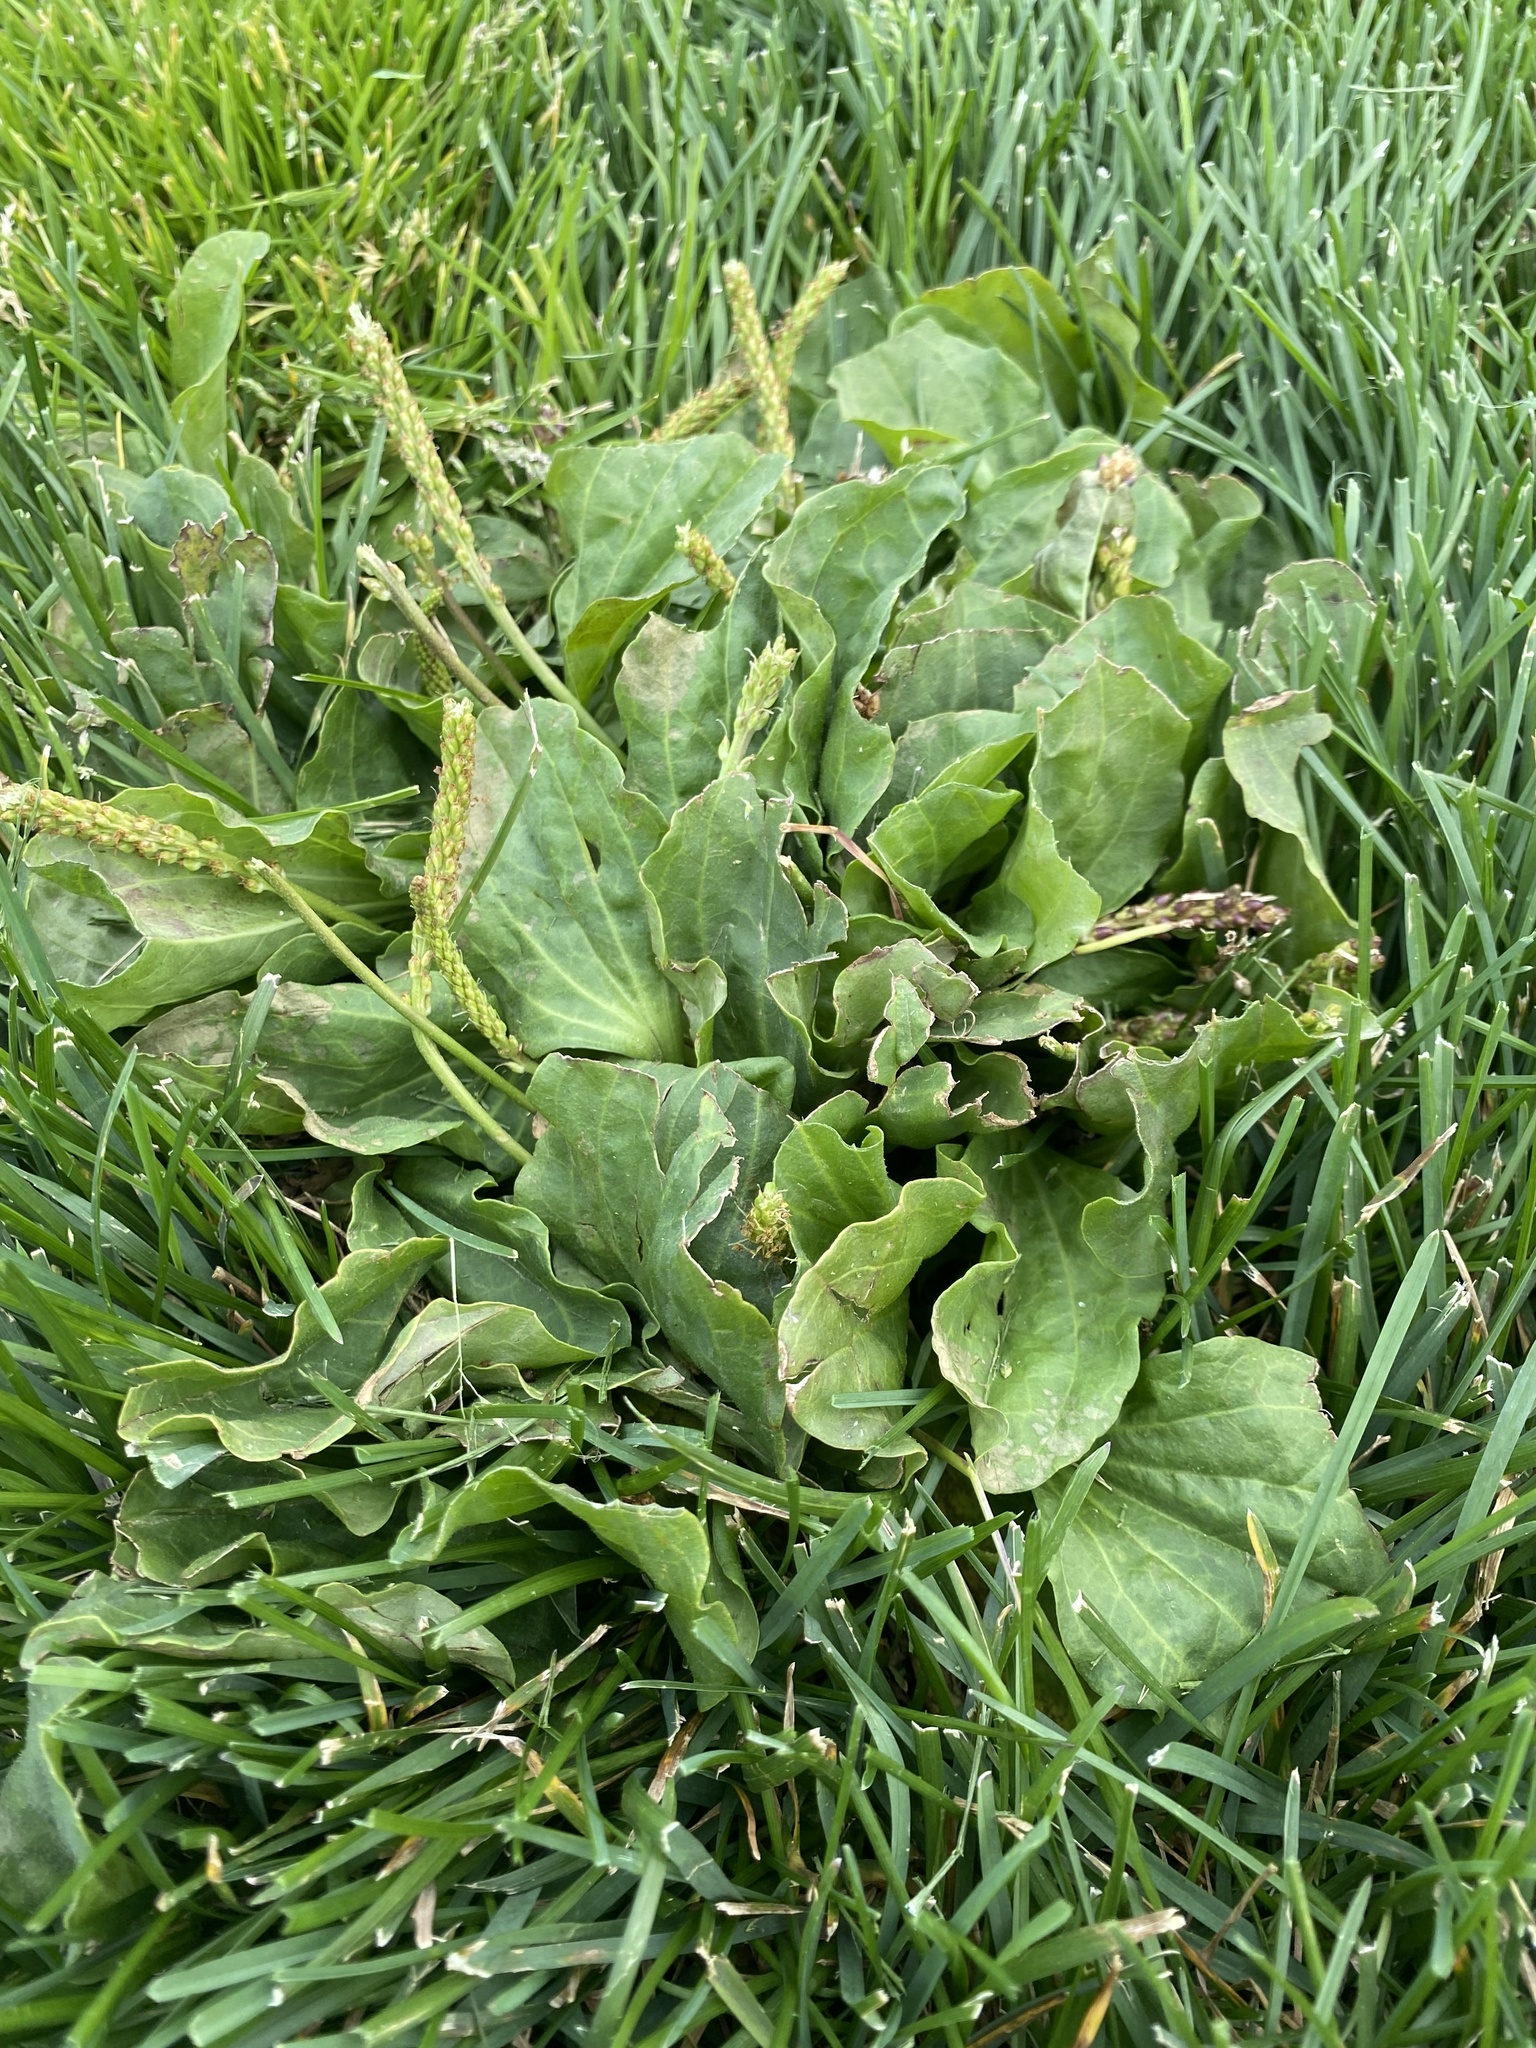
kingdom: Plantae
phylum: Tracheophyta
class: Magnoliopsida
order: Lamiales
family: Plantaginaceae
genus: Plantago
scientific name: Plantago major
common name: Common plantain
